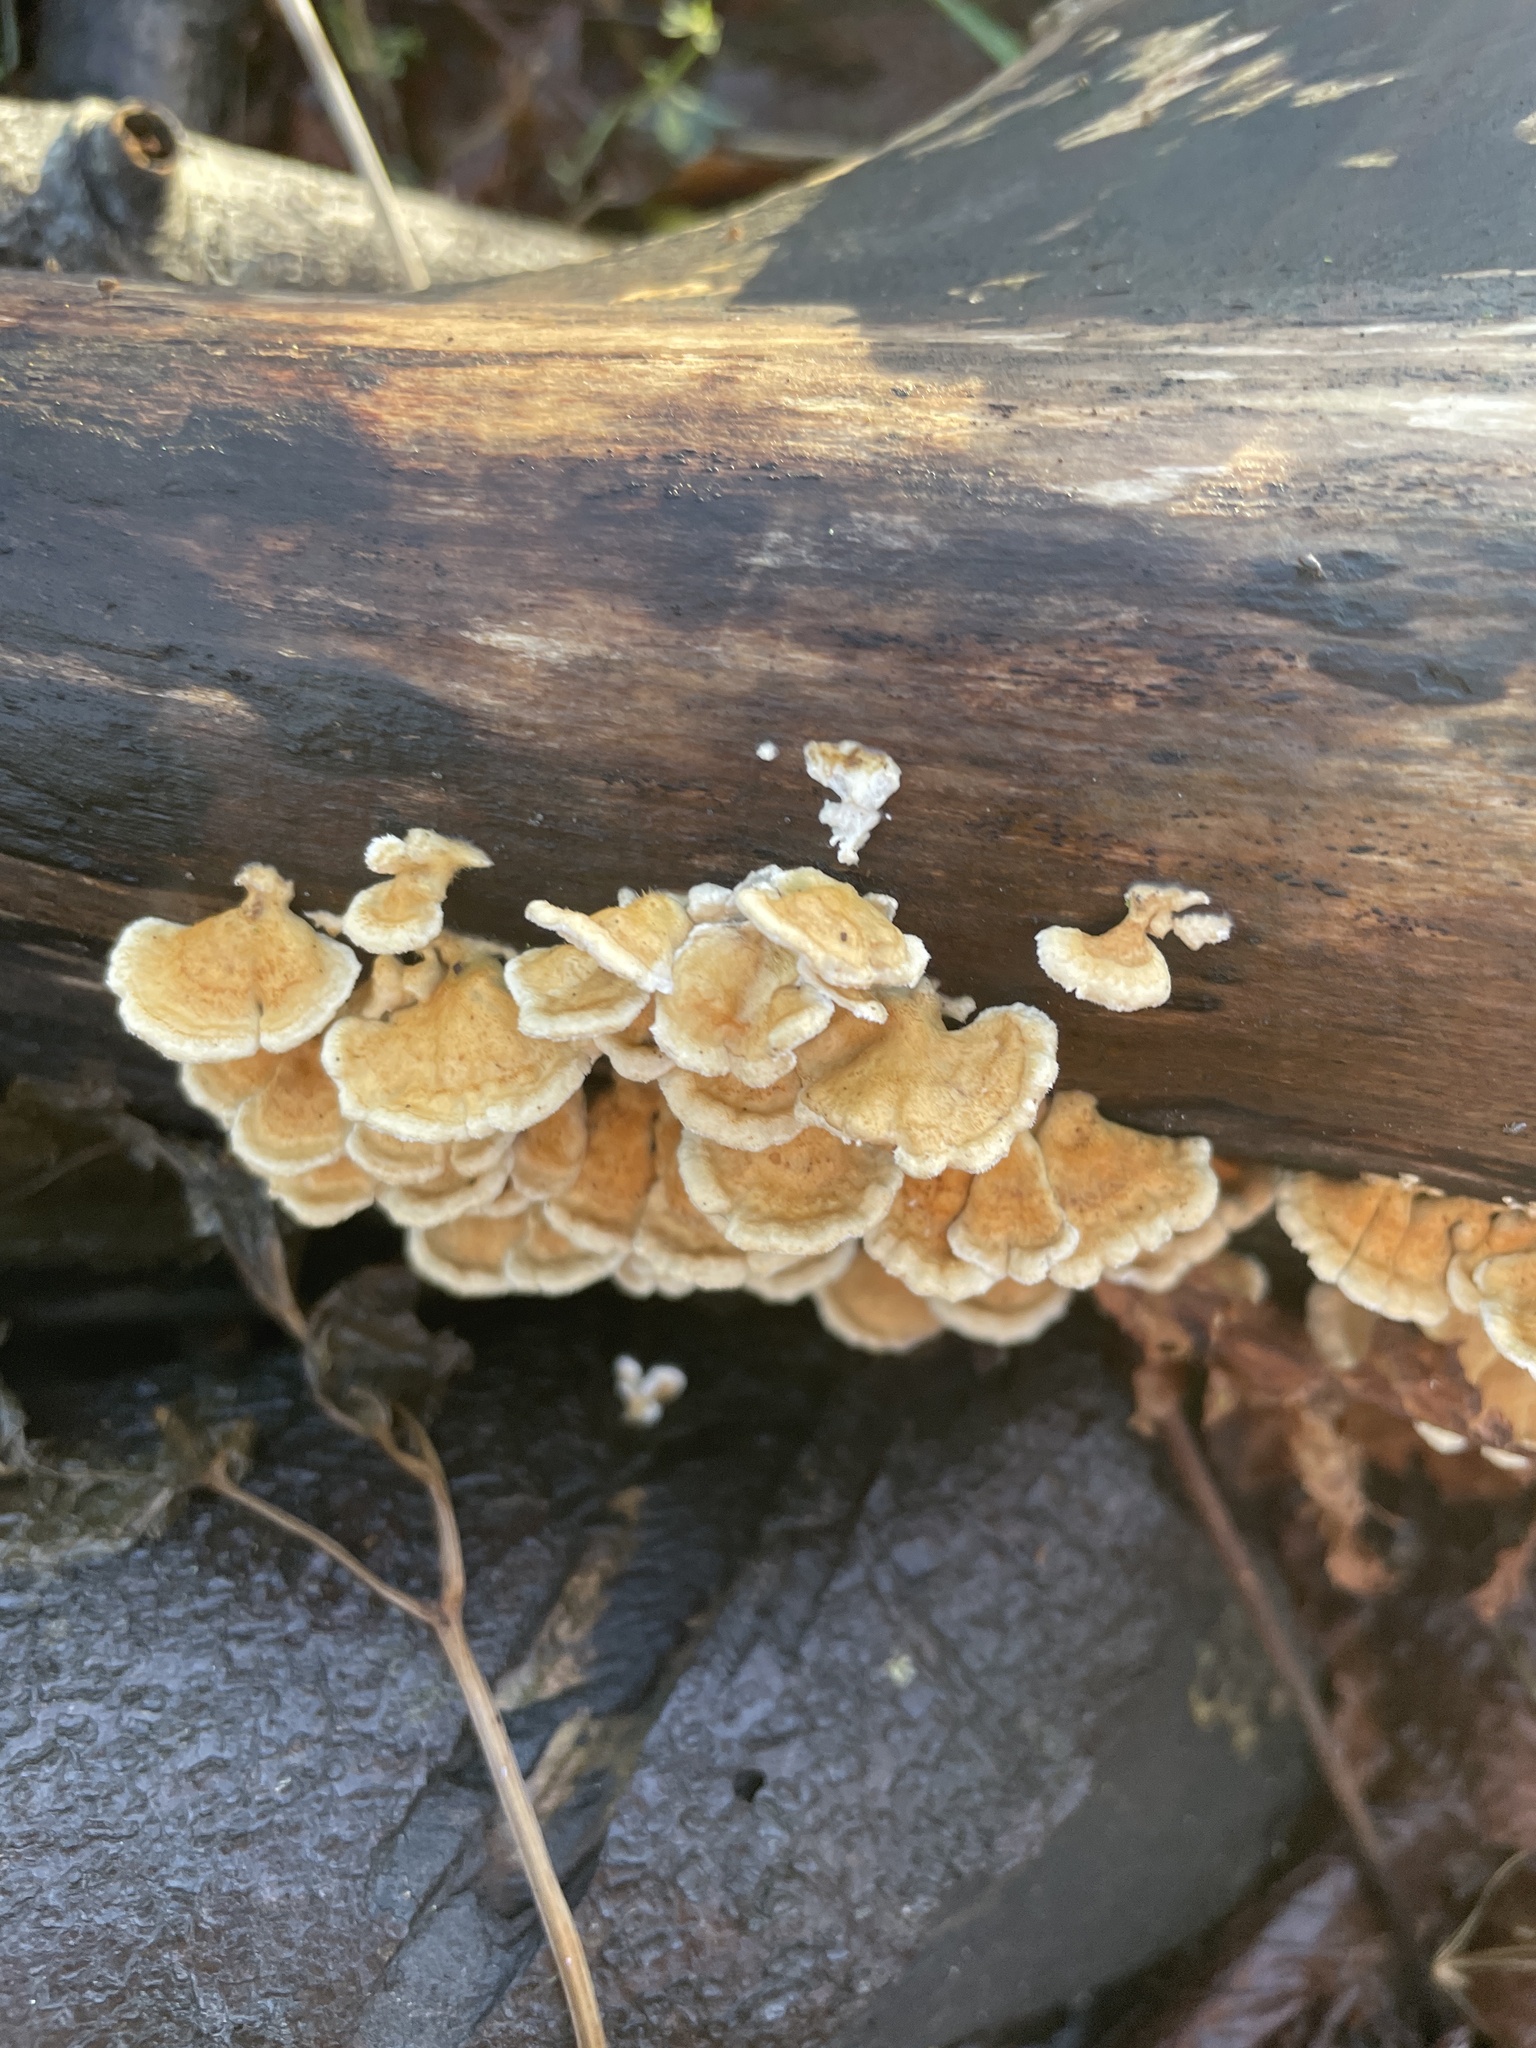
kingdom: Fungi
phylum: Basidiomycota
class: Agaricomycetes
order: Amylocorticiales
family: Amylocorticiaceae
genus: Plicaturopsis
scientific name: Plicaturopsis crispa
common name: Crimped gill
